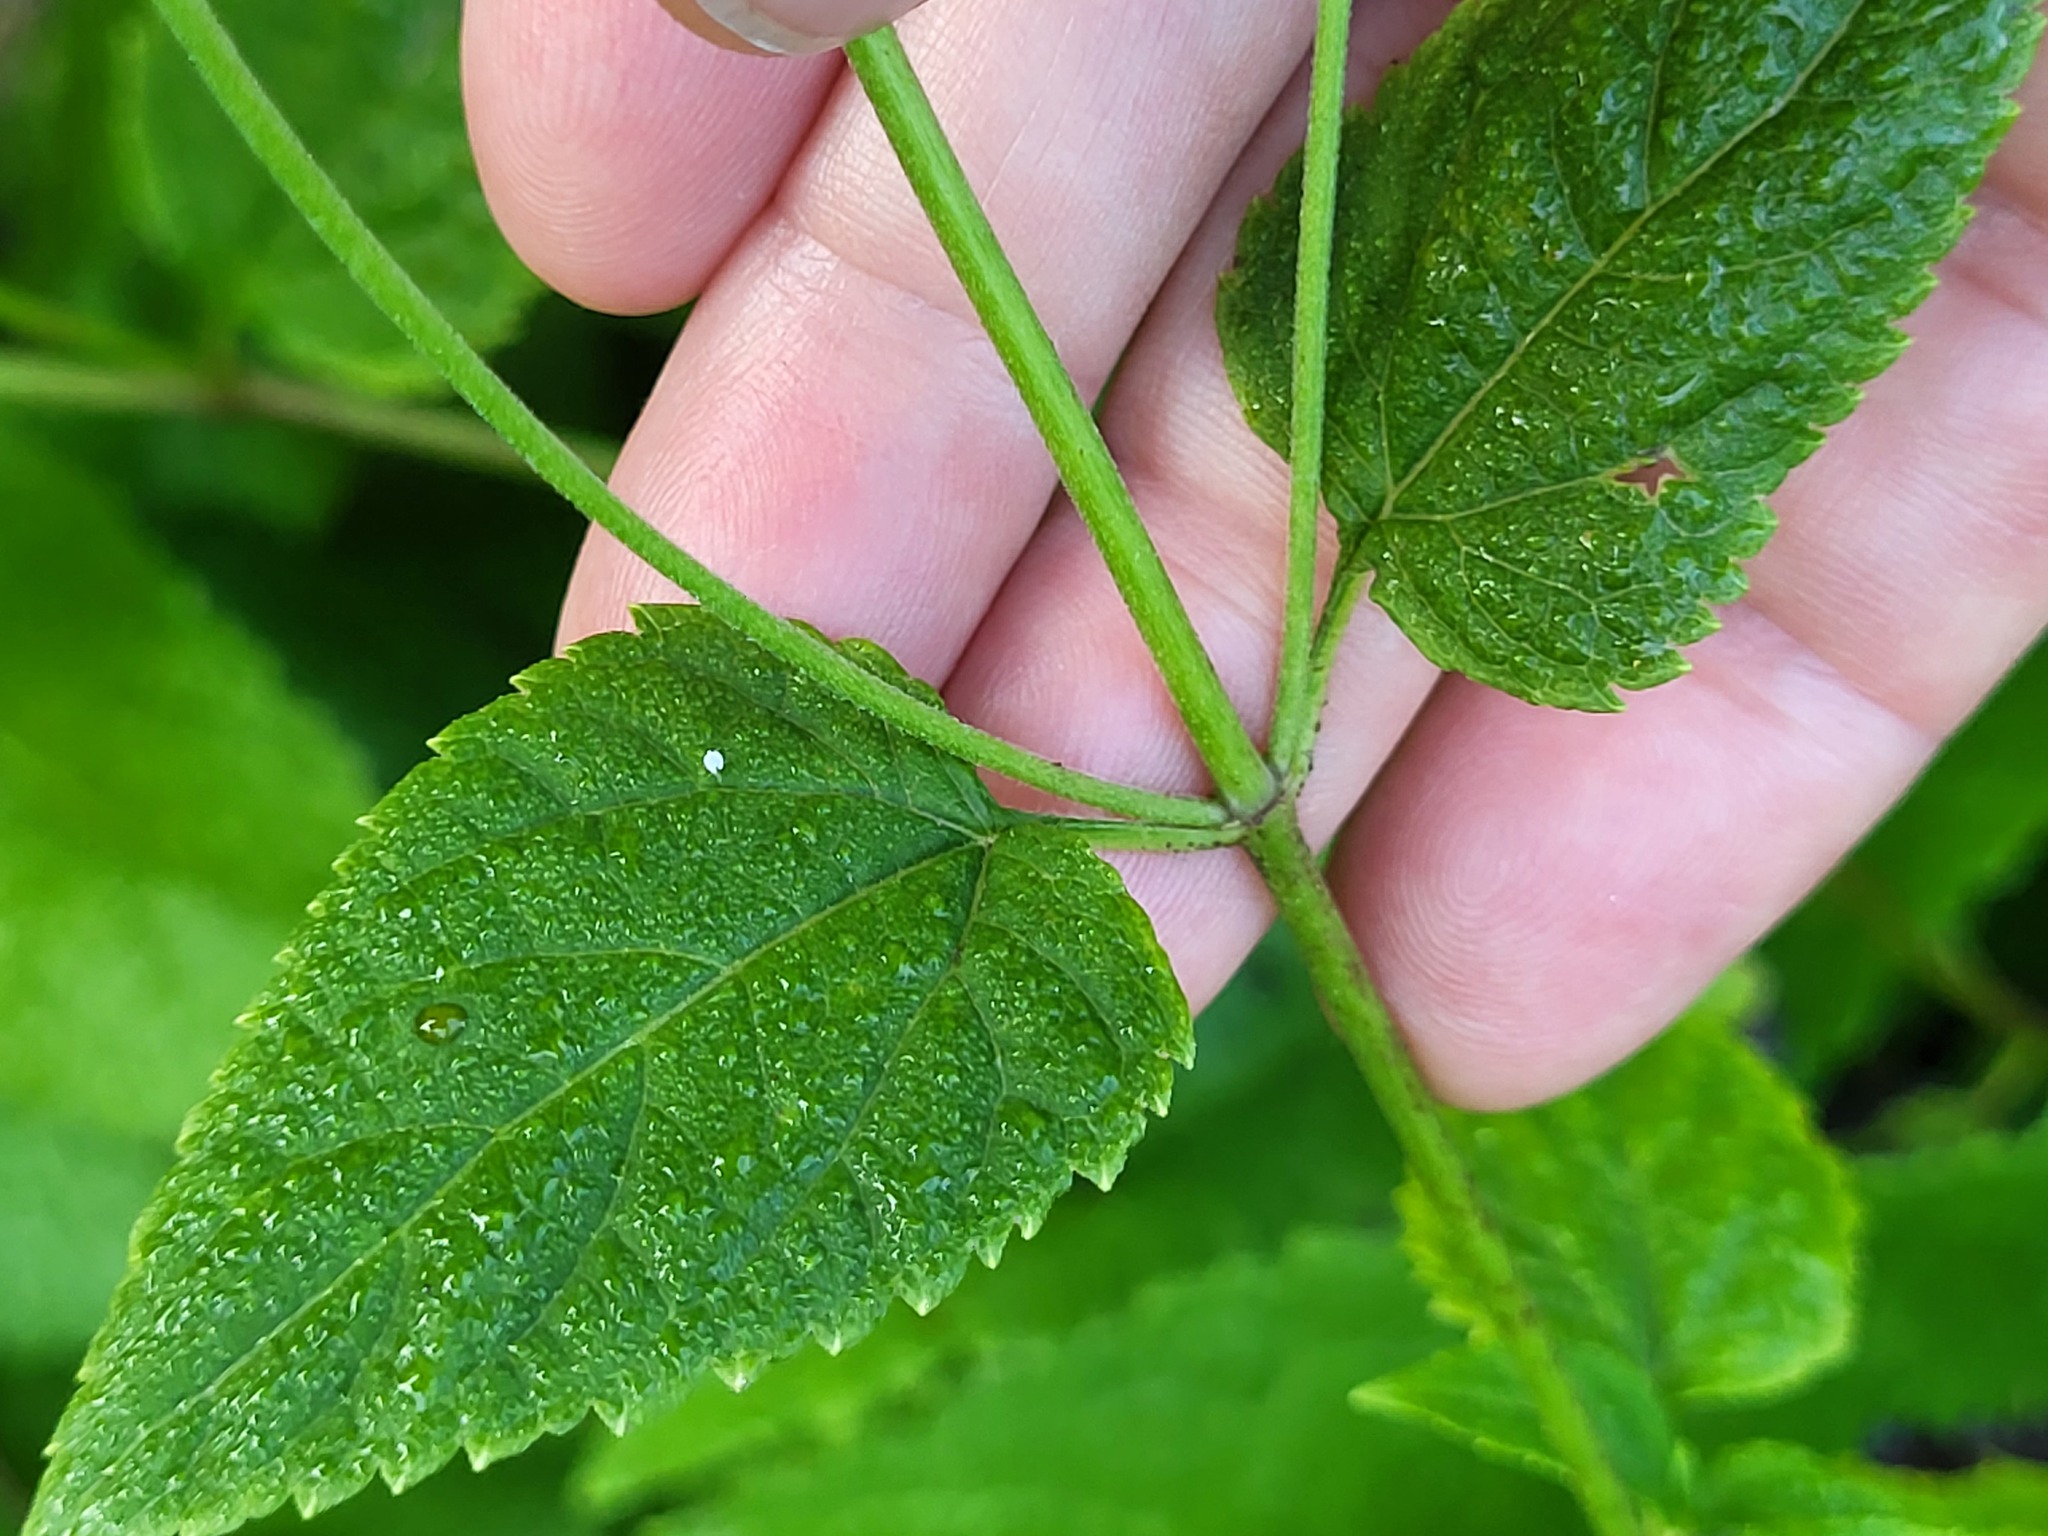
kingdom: Plantae
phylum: Tracheophyta
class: Magnoliopsida
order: Asterales
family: Asteraceae
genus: Ageratina
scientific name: Ageratina altissima
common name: White snakeroot
